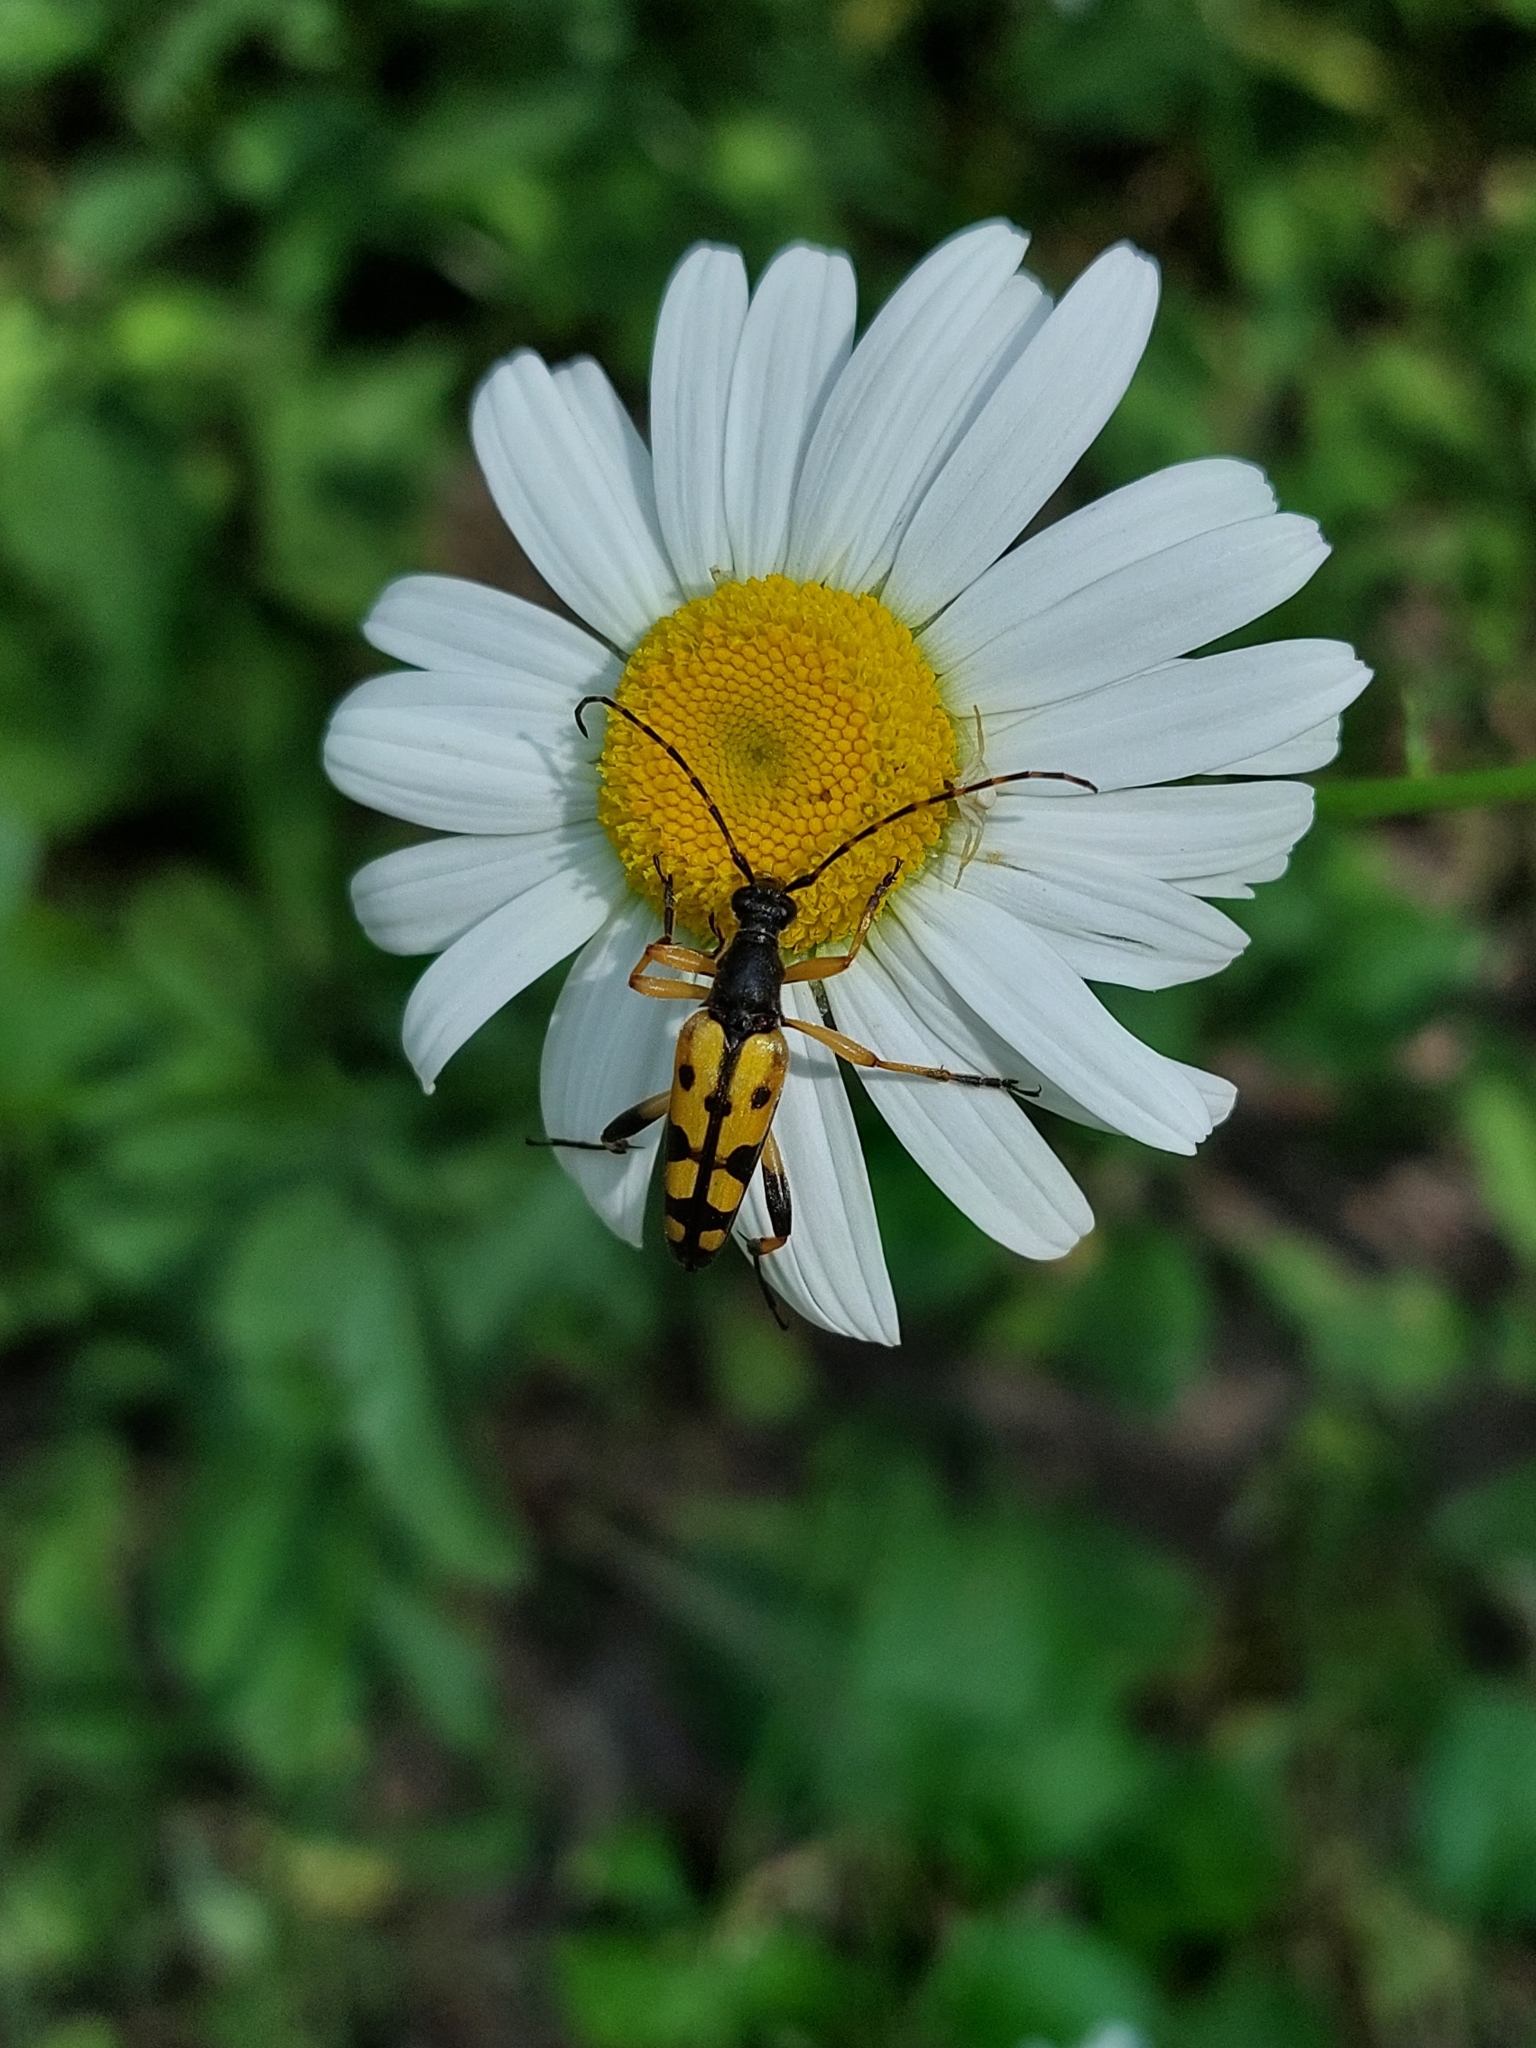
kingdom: Animalia
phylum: Arthropoda
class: Insecta
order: Coleoptera
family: Cerambycidae
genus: Rutpela
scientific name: Rutpela maculata
